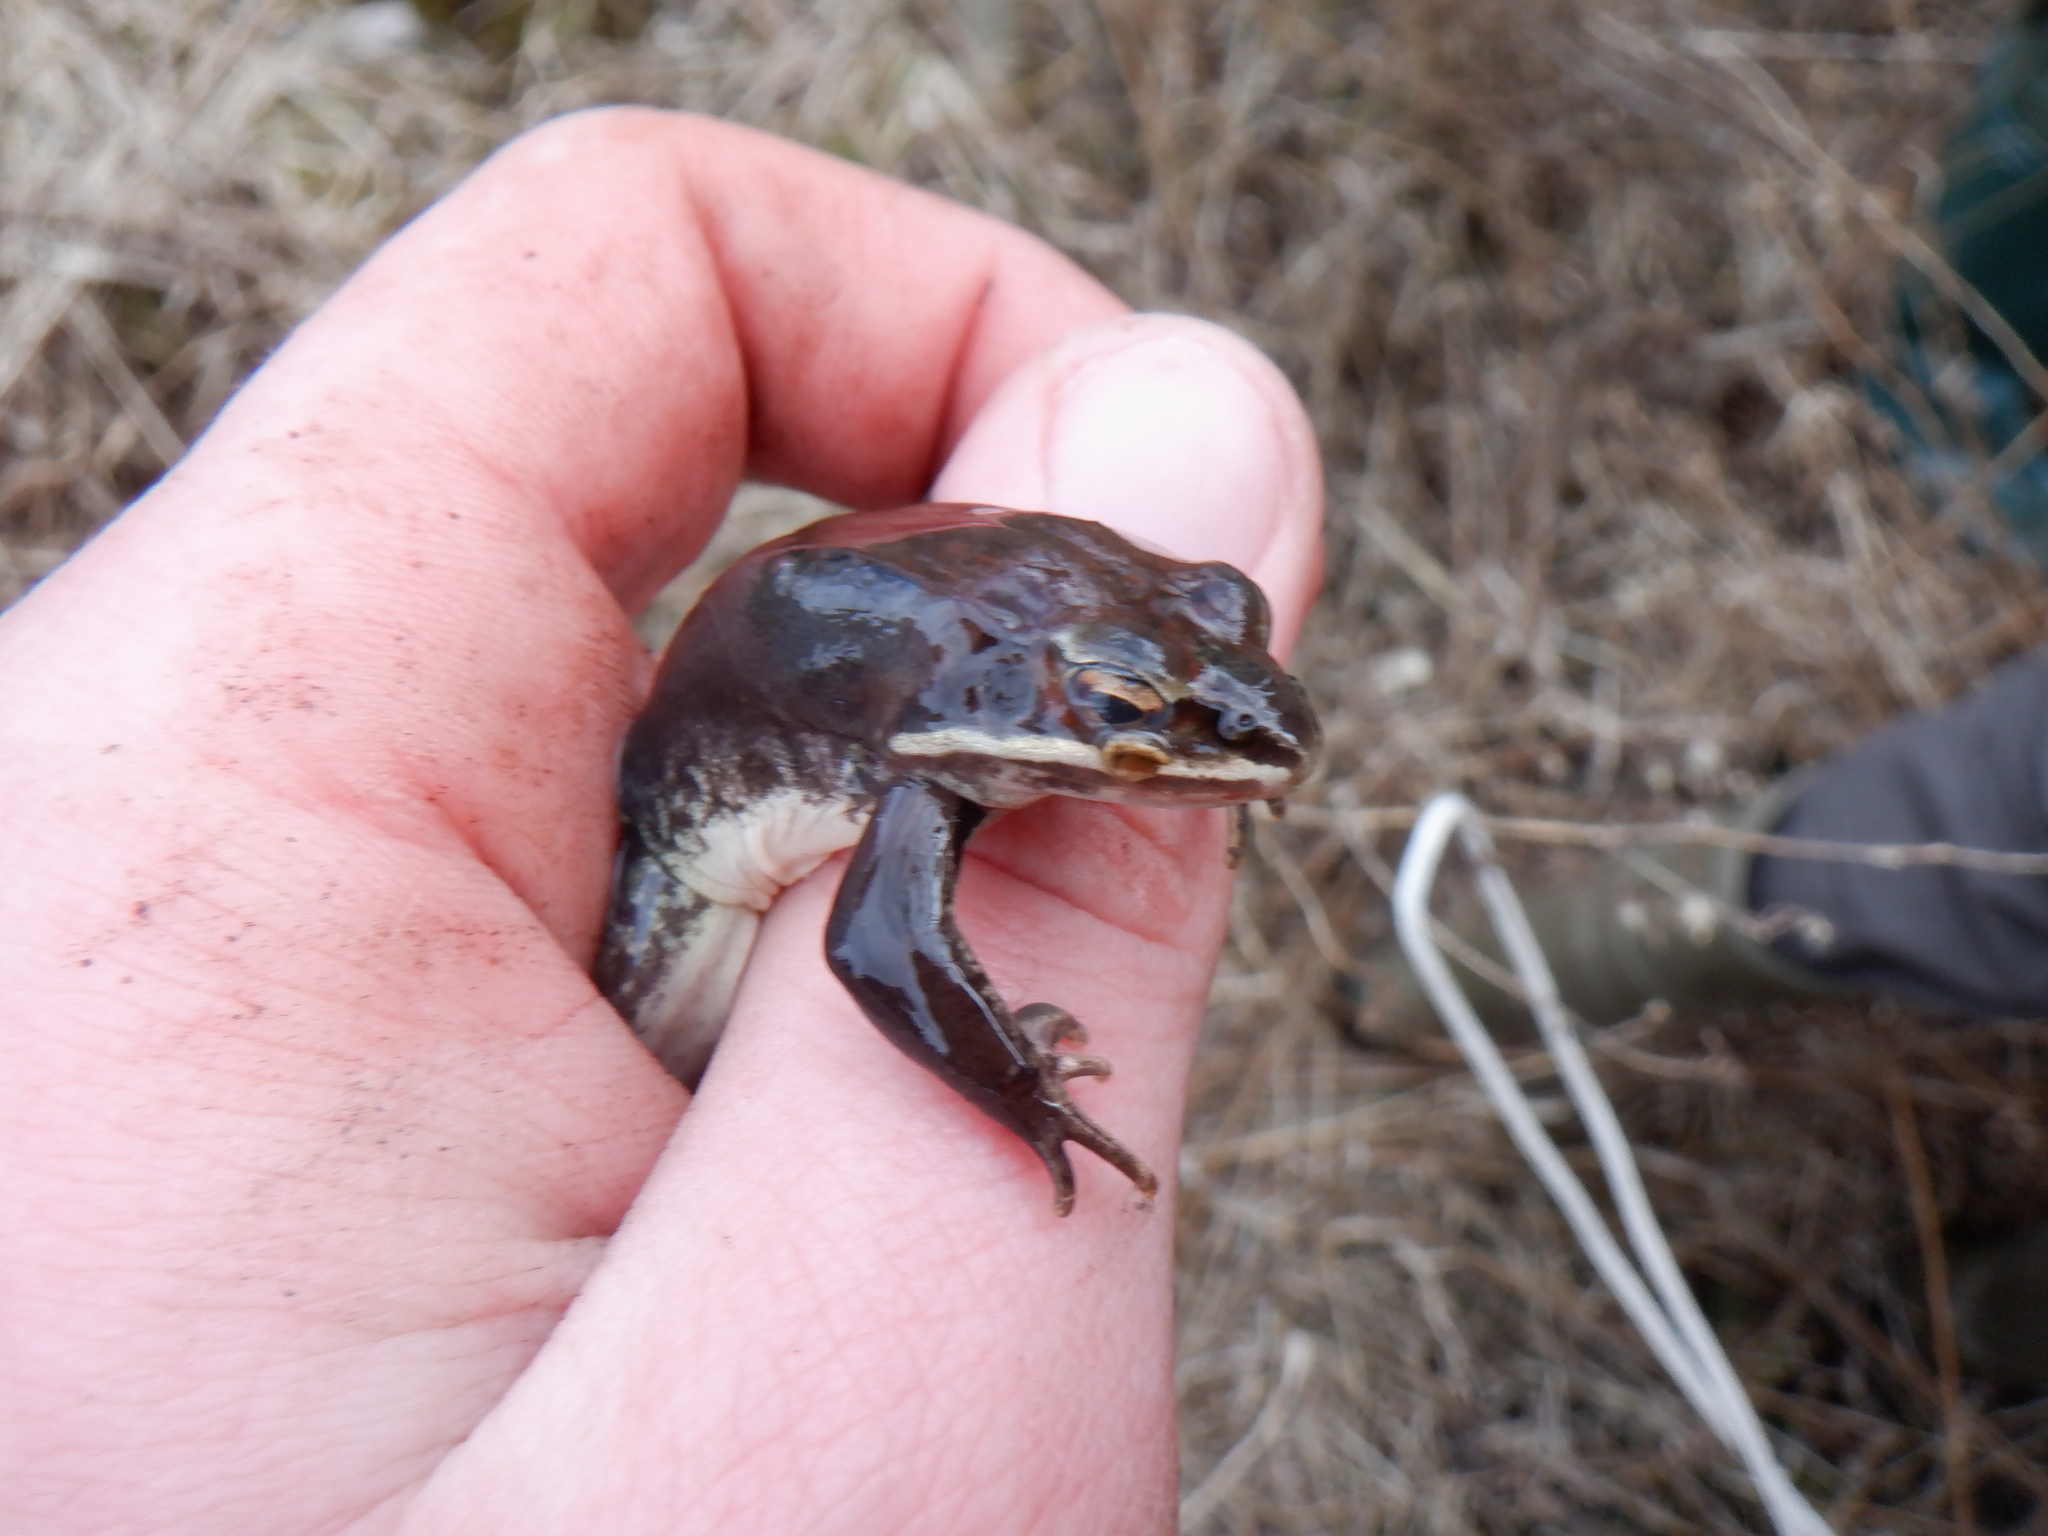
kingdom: Animalia
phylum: Chordata
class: Amphibia
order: Anura
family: Ranidae
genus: Lithobates
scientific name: Lithobates sylvaticus
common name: Wood frog
